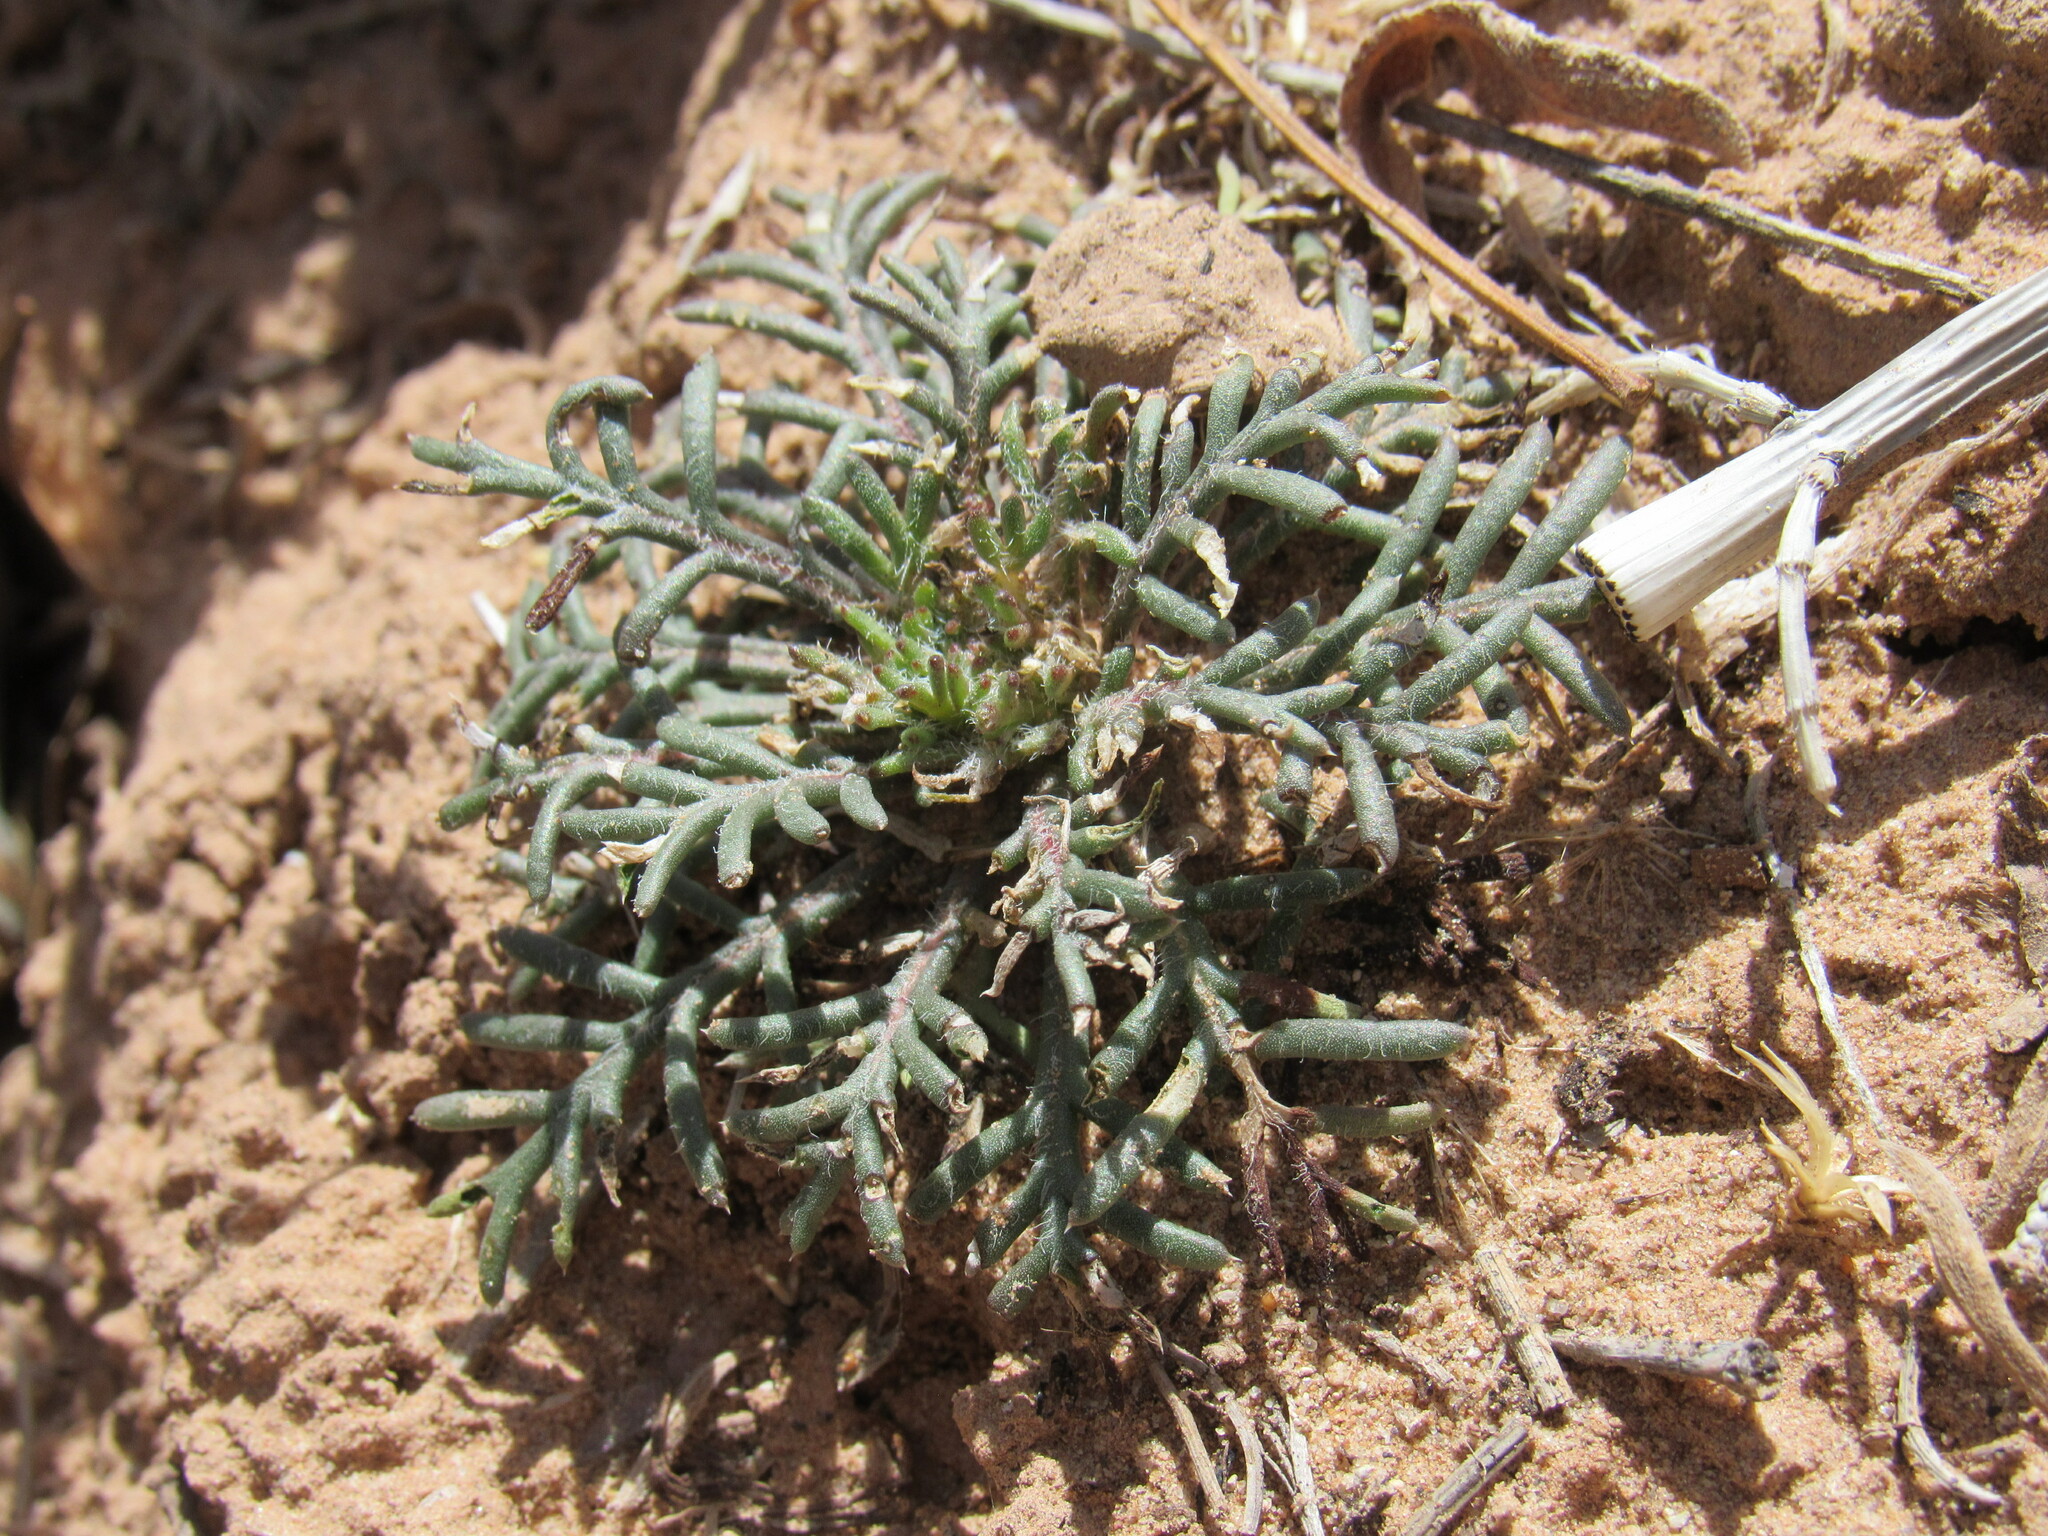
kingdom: Plantae
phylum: Tracheophyta
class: Magnoliopsida
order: Ericales
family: Polemoniaceae
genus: Ipomopsis
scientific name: Ipomopsis aggregata
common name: Scarlet gilia
